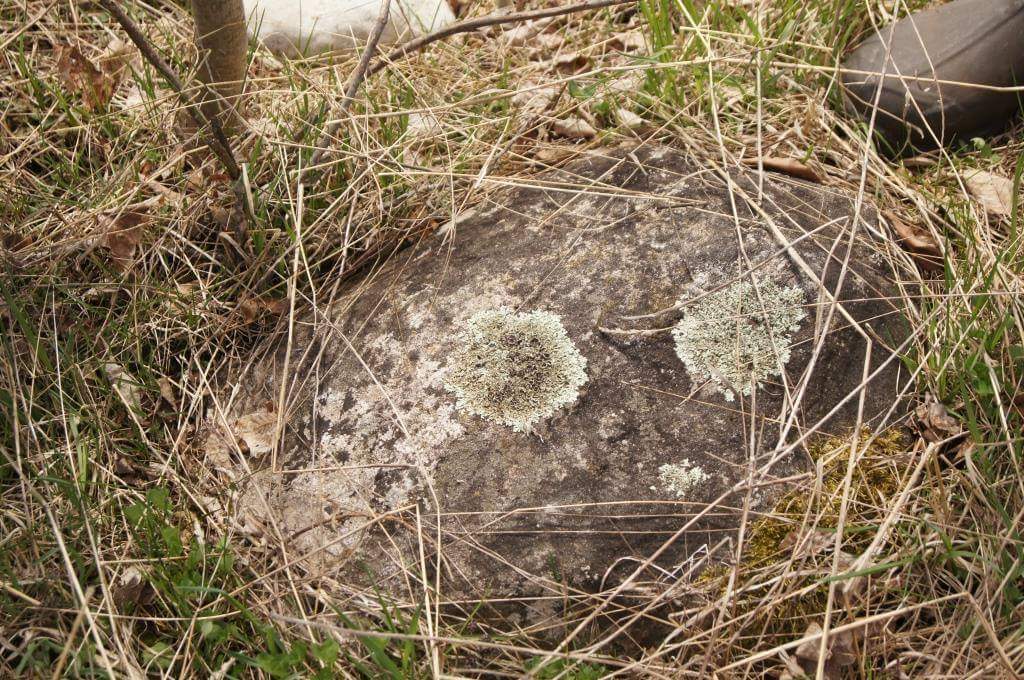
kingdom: Fungi
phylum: Ascomycota
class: Lecanoromycetes
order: Lecanorales
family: Parmeliaceae
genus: Xanthoparmelia
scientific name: Xanthoparmelia cumberlandia
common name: Cumberland rock shield
